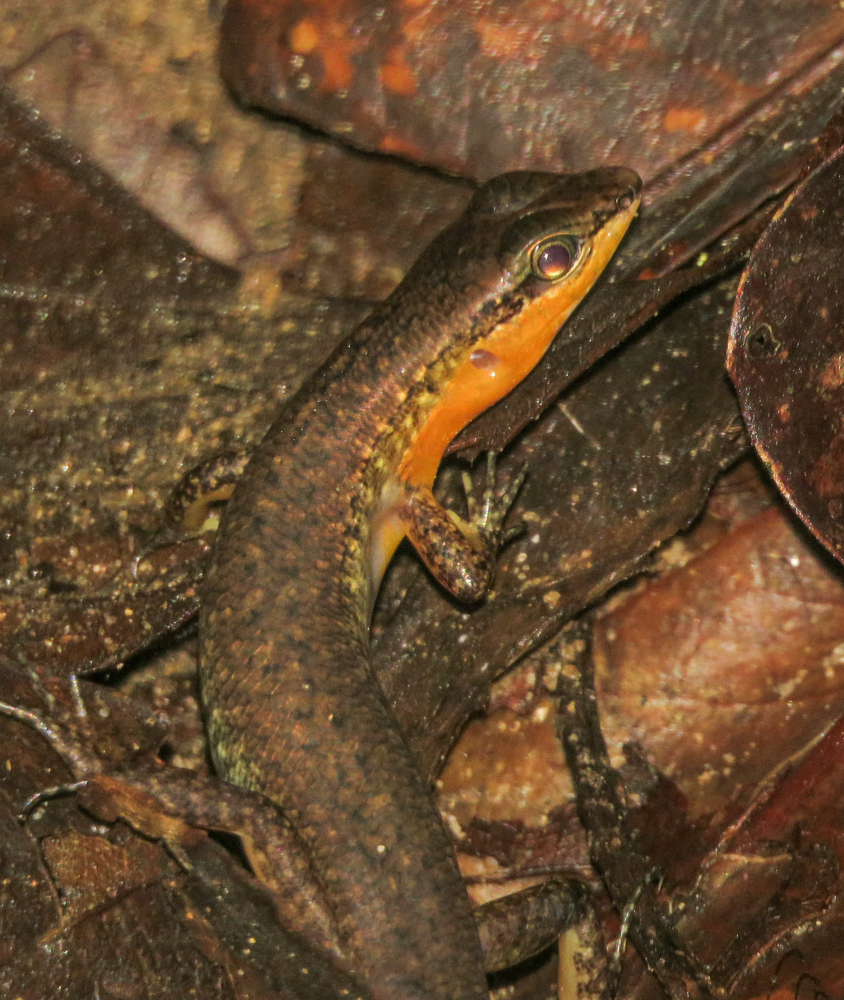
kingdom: Animalia
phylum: Chordata
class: Squamata
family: Scincidae
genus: Sphenomorphus
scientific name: Sphenomorphus maculatus
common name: Maculated forest skink
